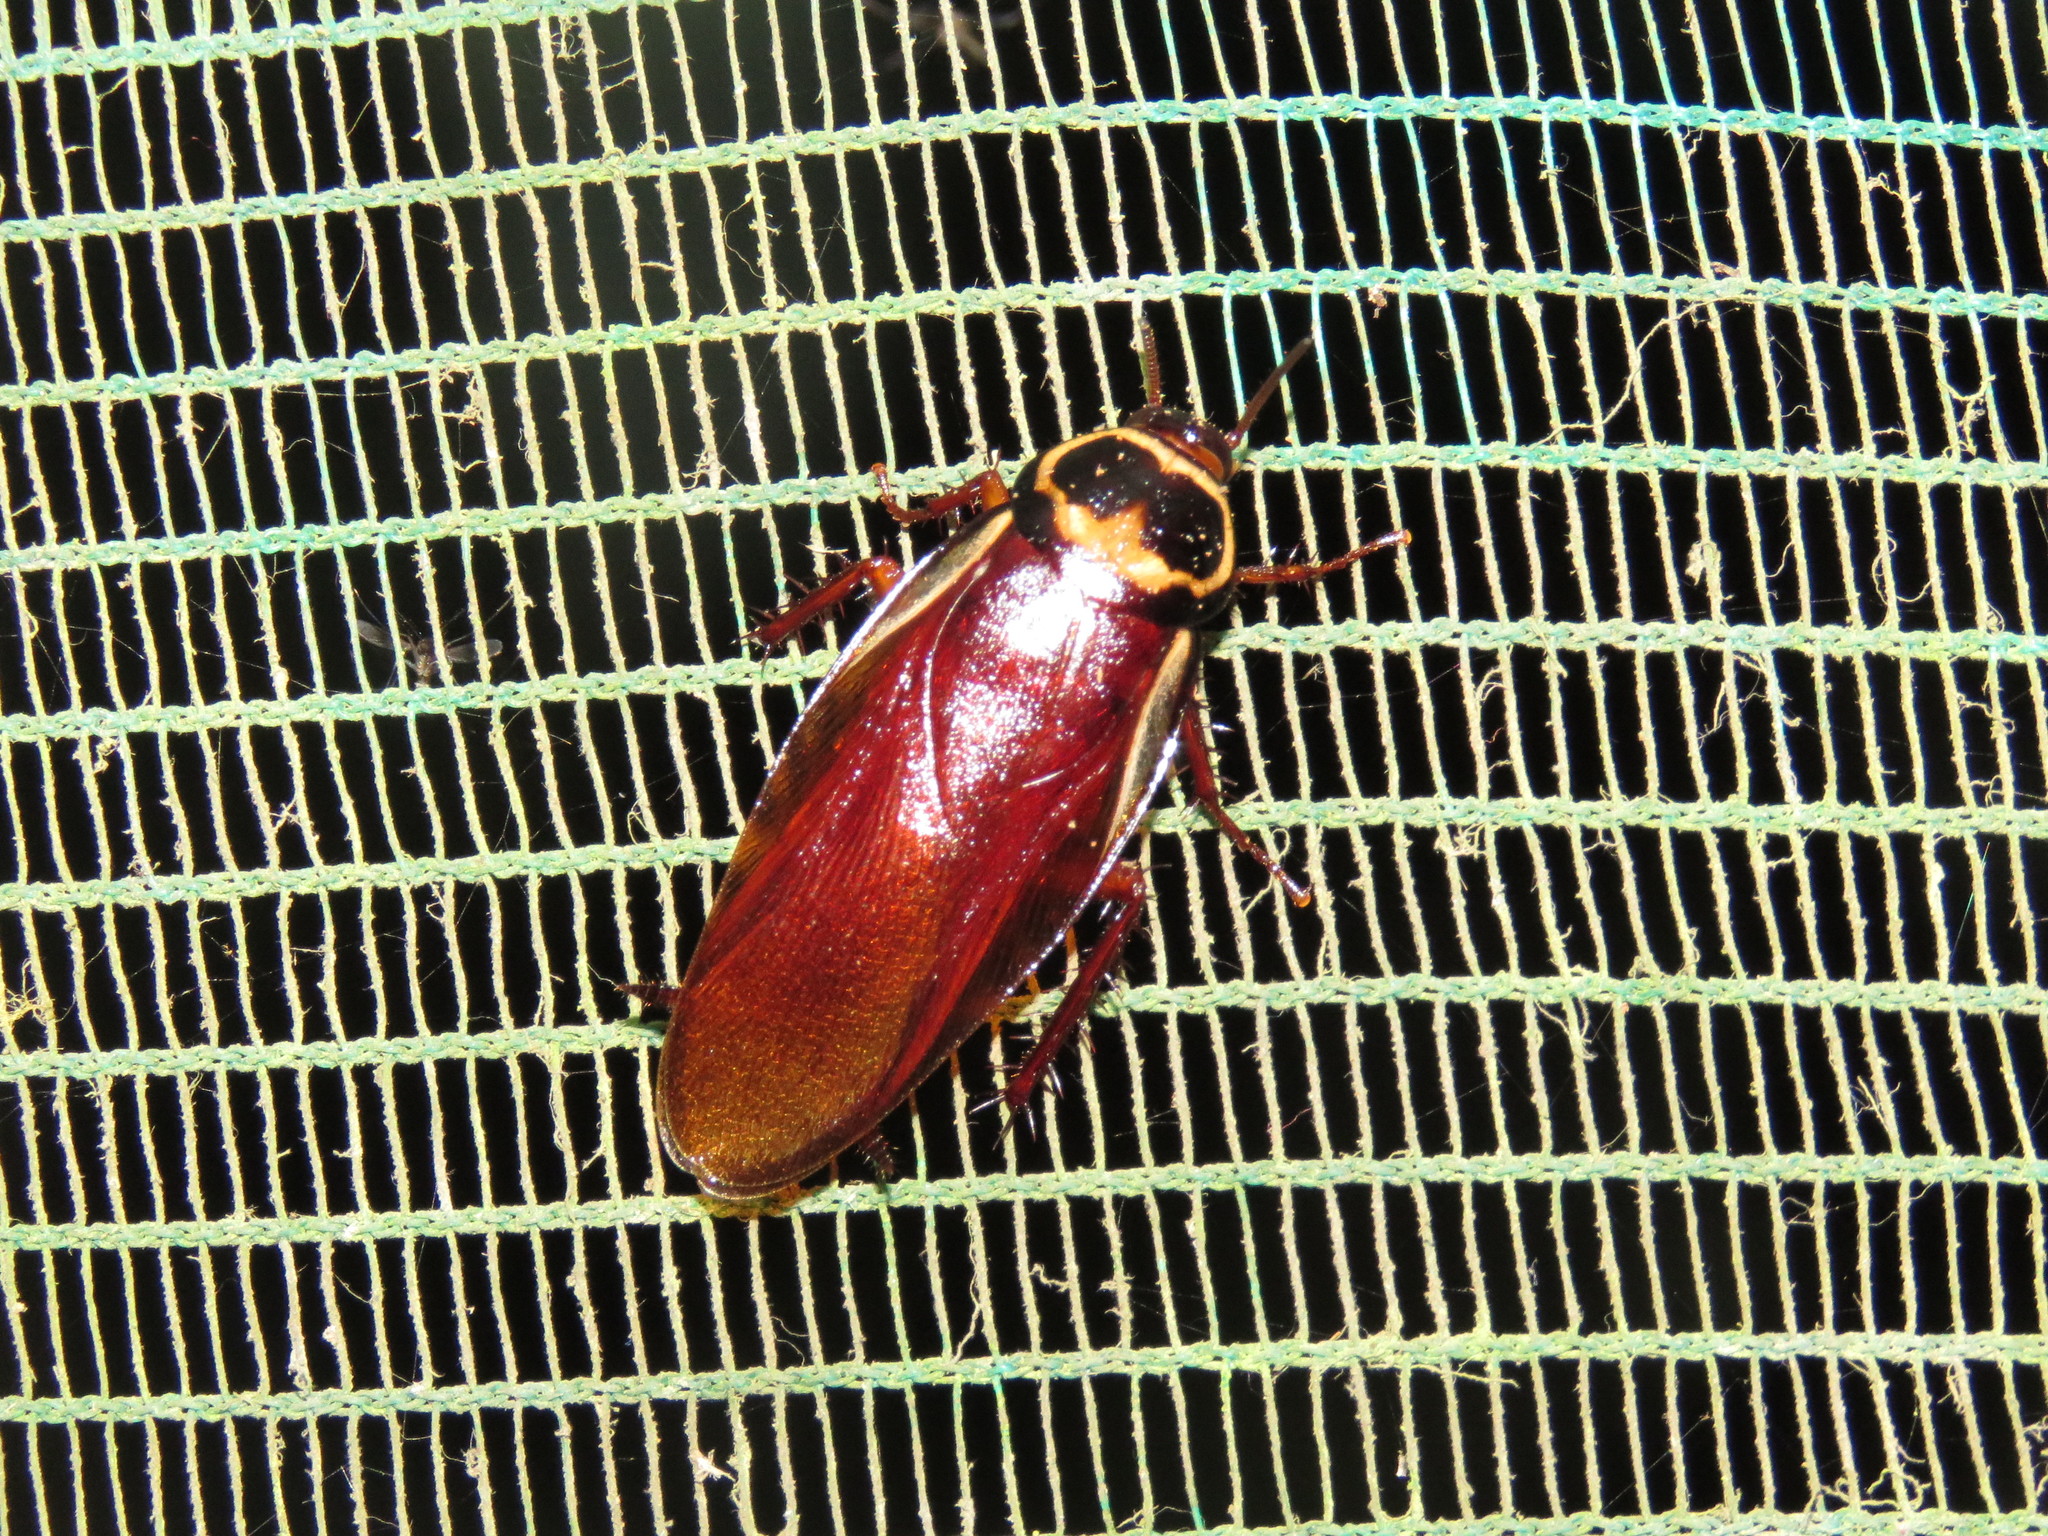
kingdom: Animalia
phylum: Arthropoda
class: Insecta
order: Blattodea
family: Blattidae
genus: Periplaneta
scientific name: Periplaneta australasiae
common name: Australian cockroach
